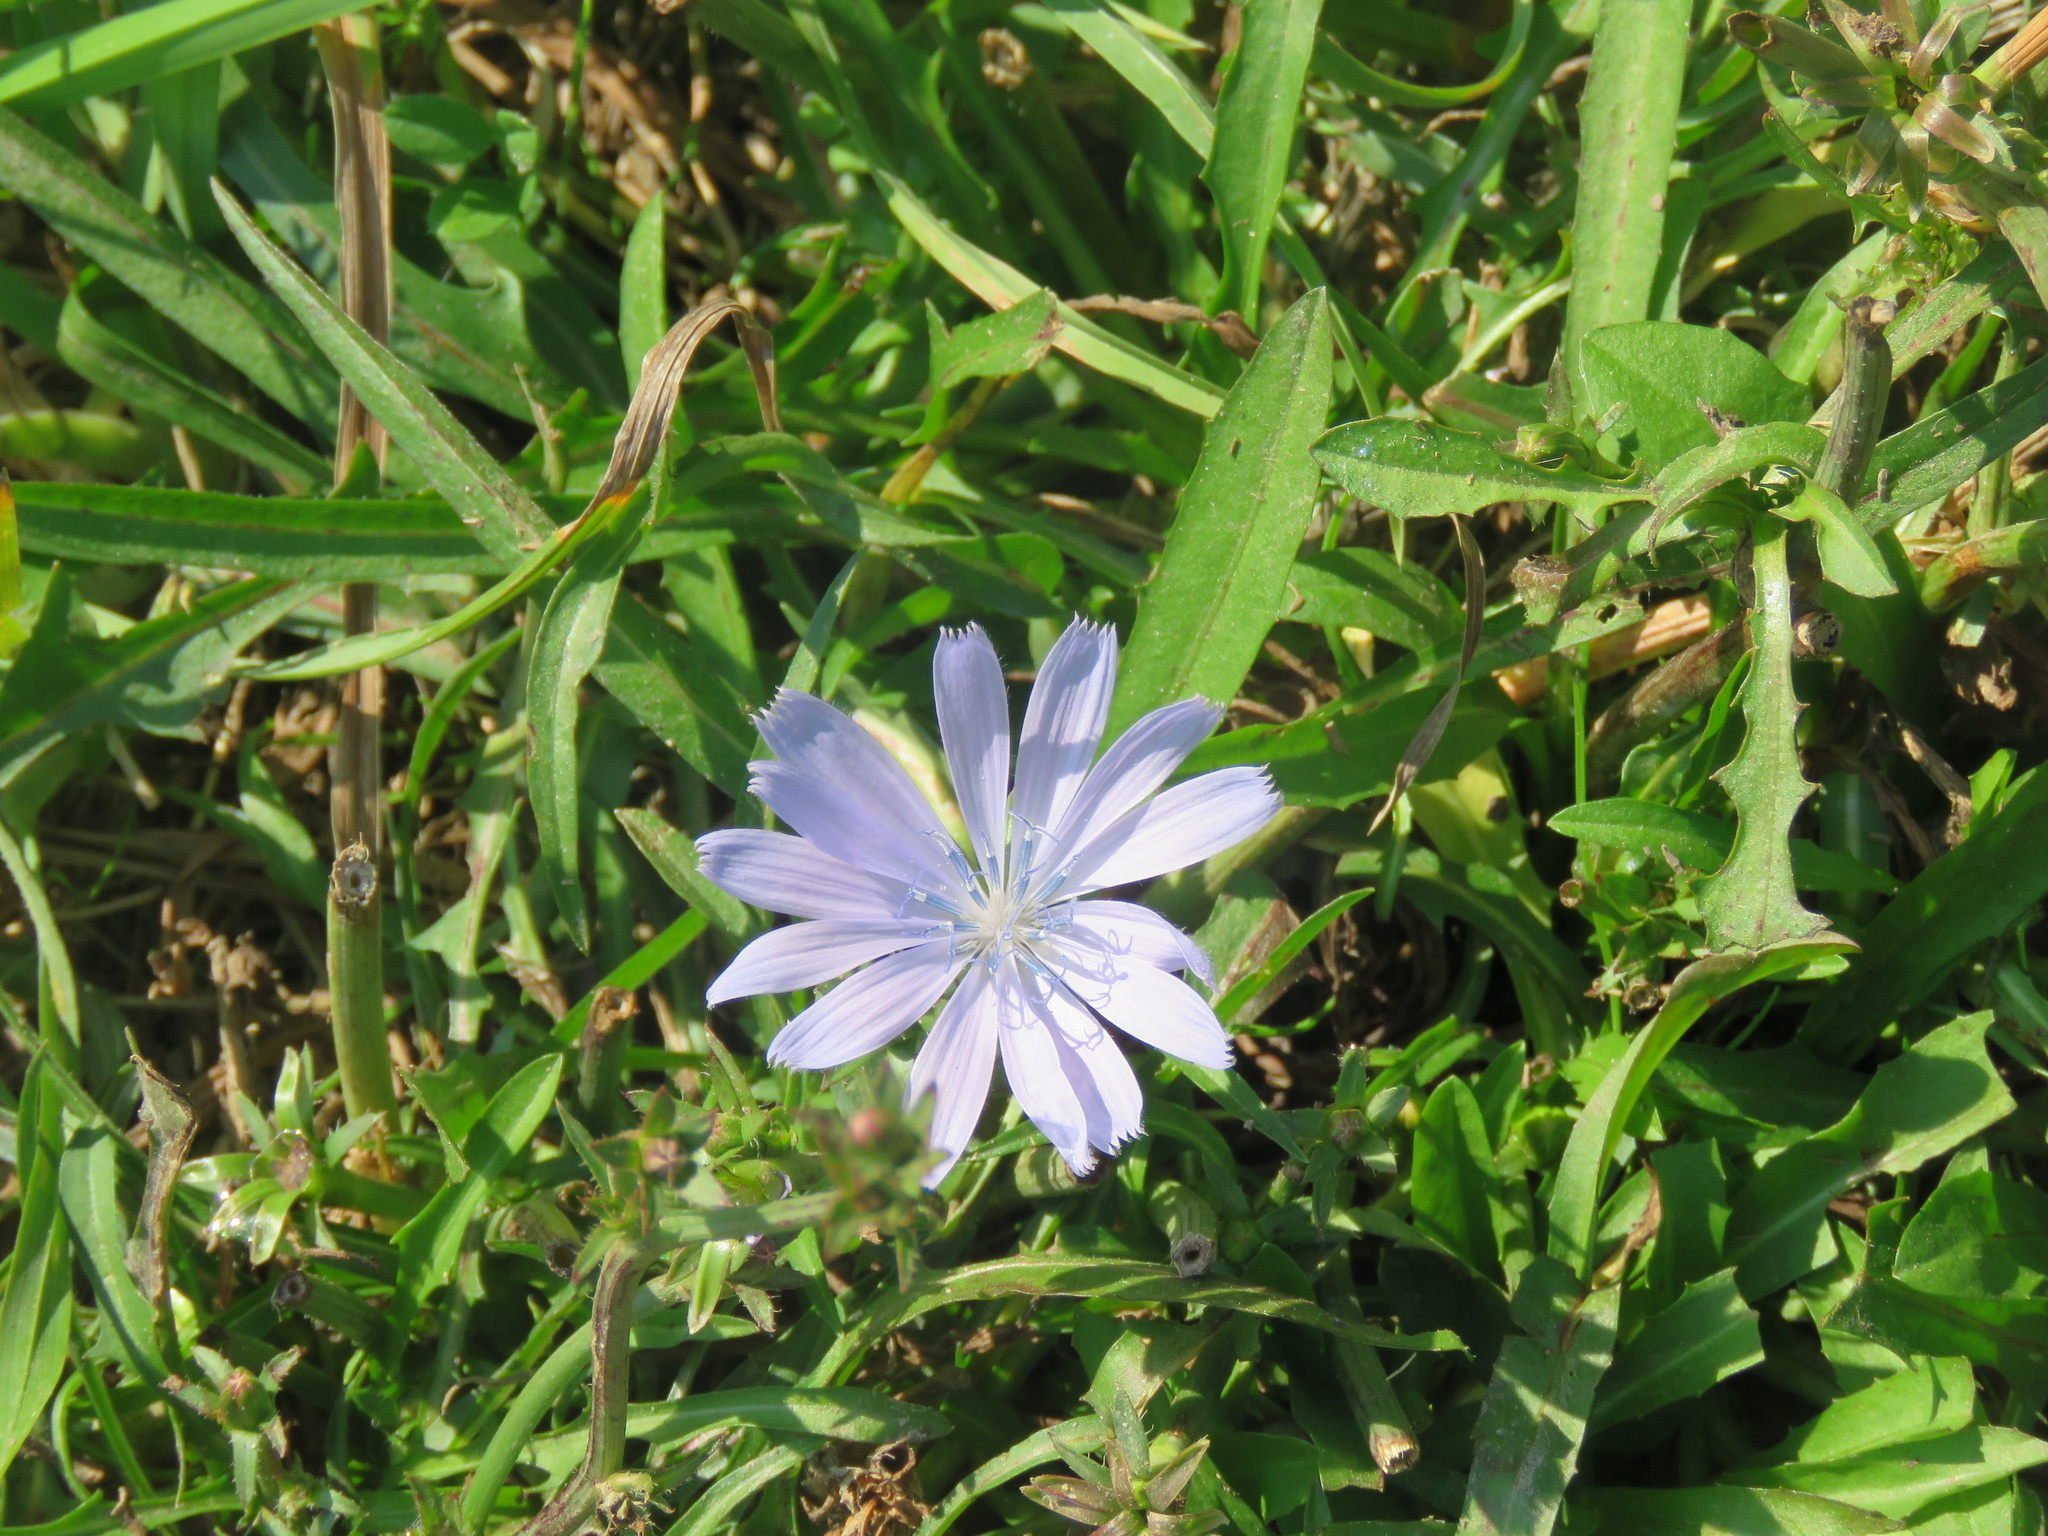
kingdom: Plantae
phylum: Tracheophyta
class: Magnoliopsida
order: Asterales
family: Asteraceae
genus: Cichorium
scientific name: Cichorium intybus
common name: Chicory
